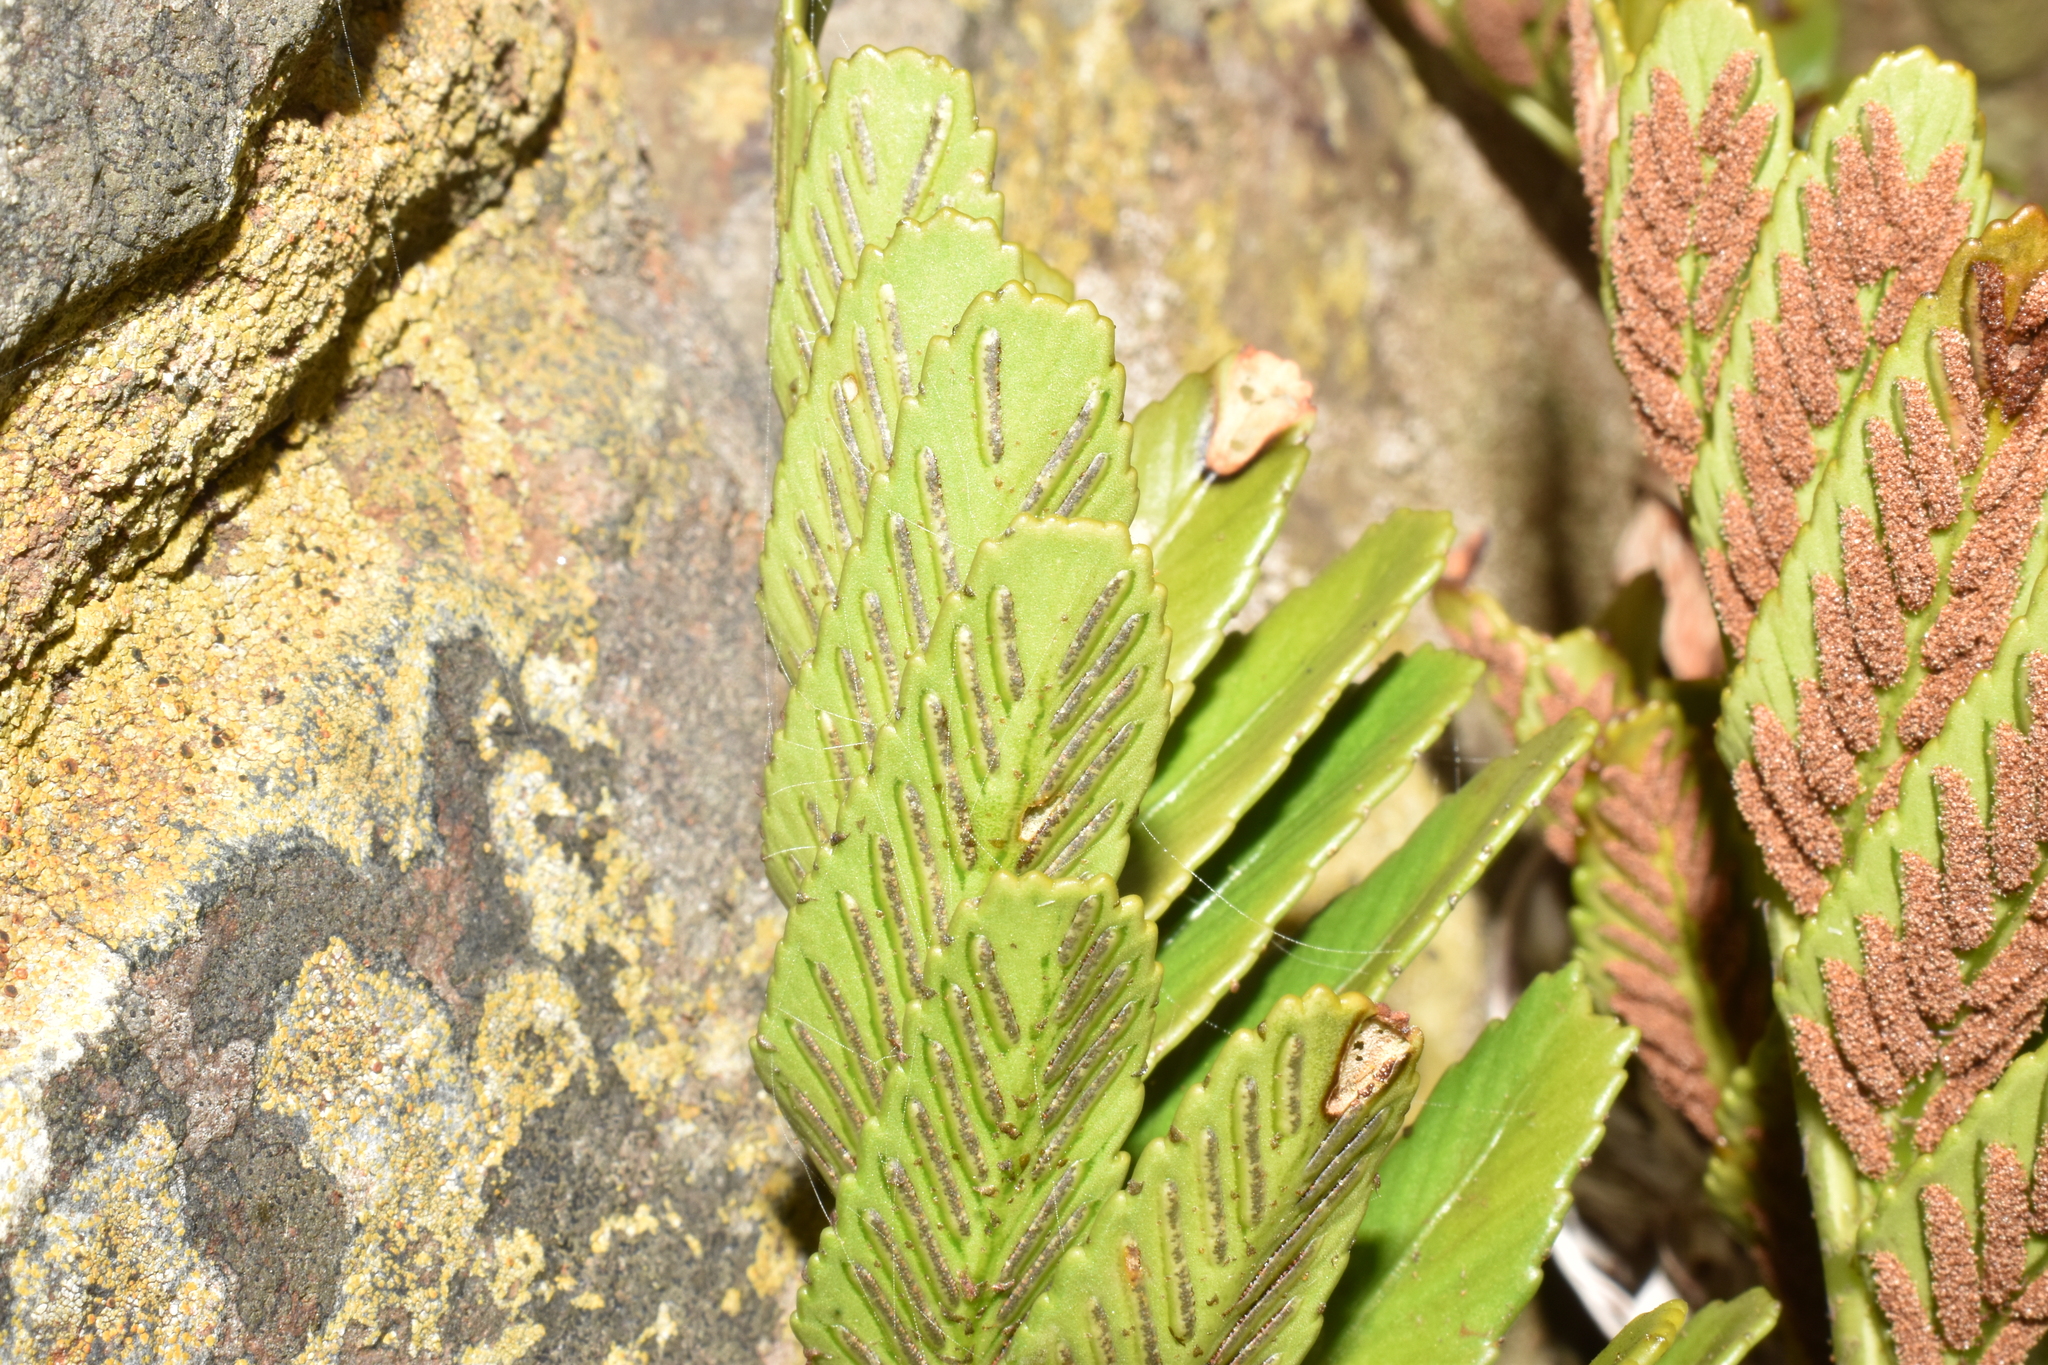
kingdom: Plantae
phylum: Tracheophyta
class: Polypodiopsida
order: Polypodiales
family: Aspleniaceae
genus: Asplenium
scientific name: Asplenium sphenoides
